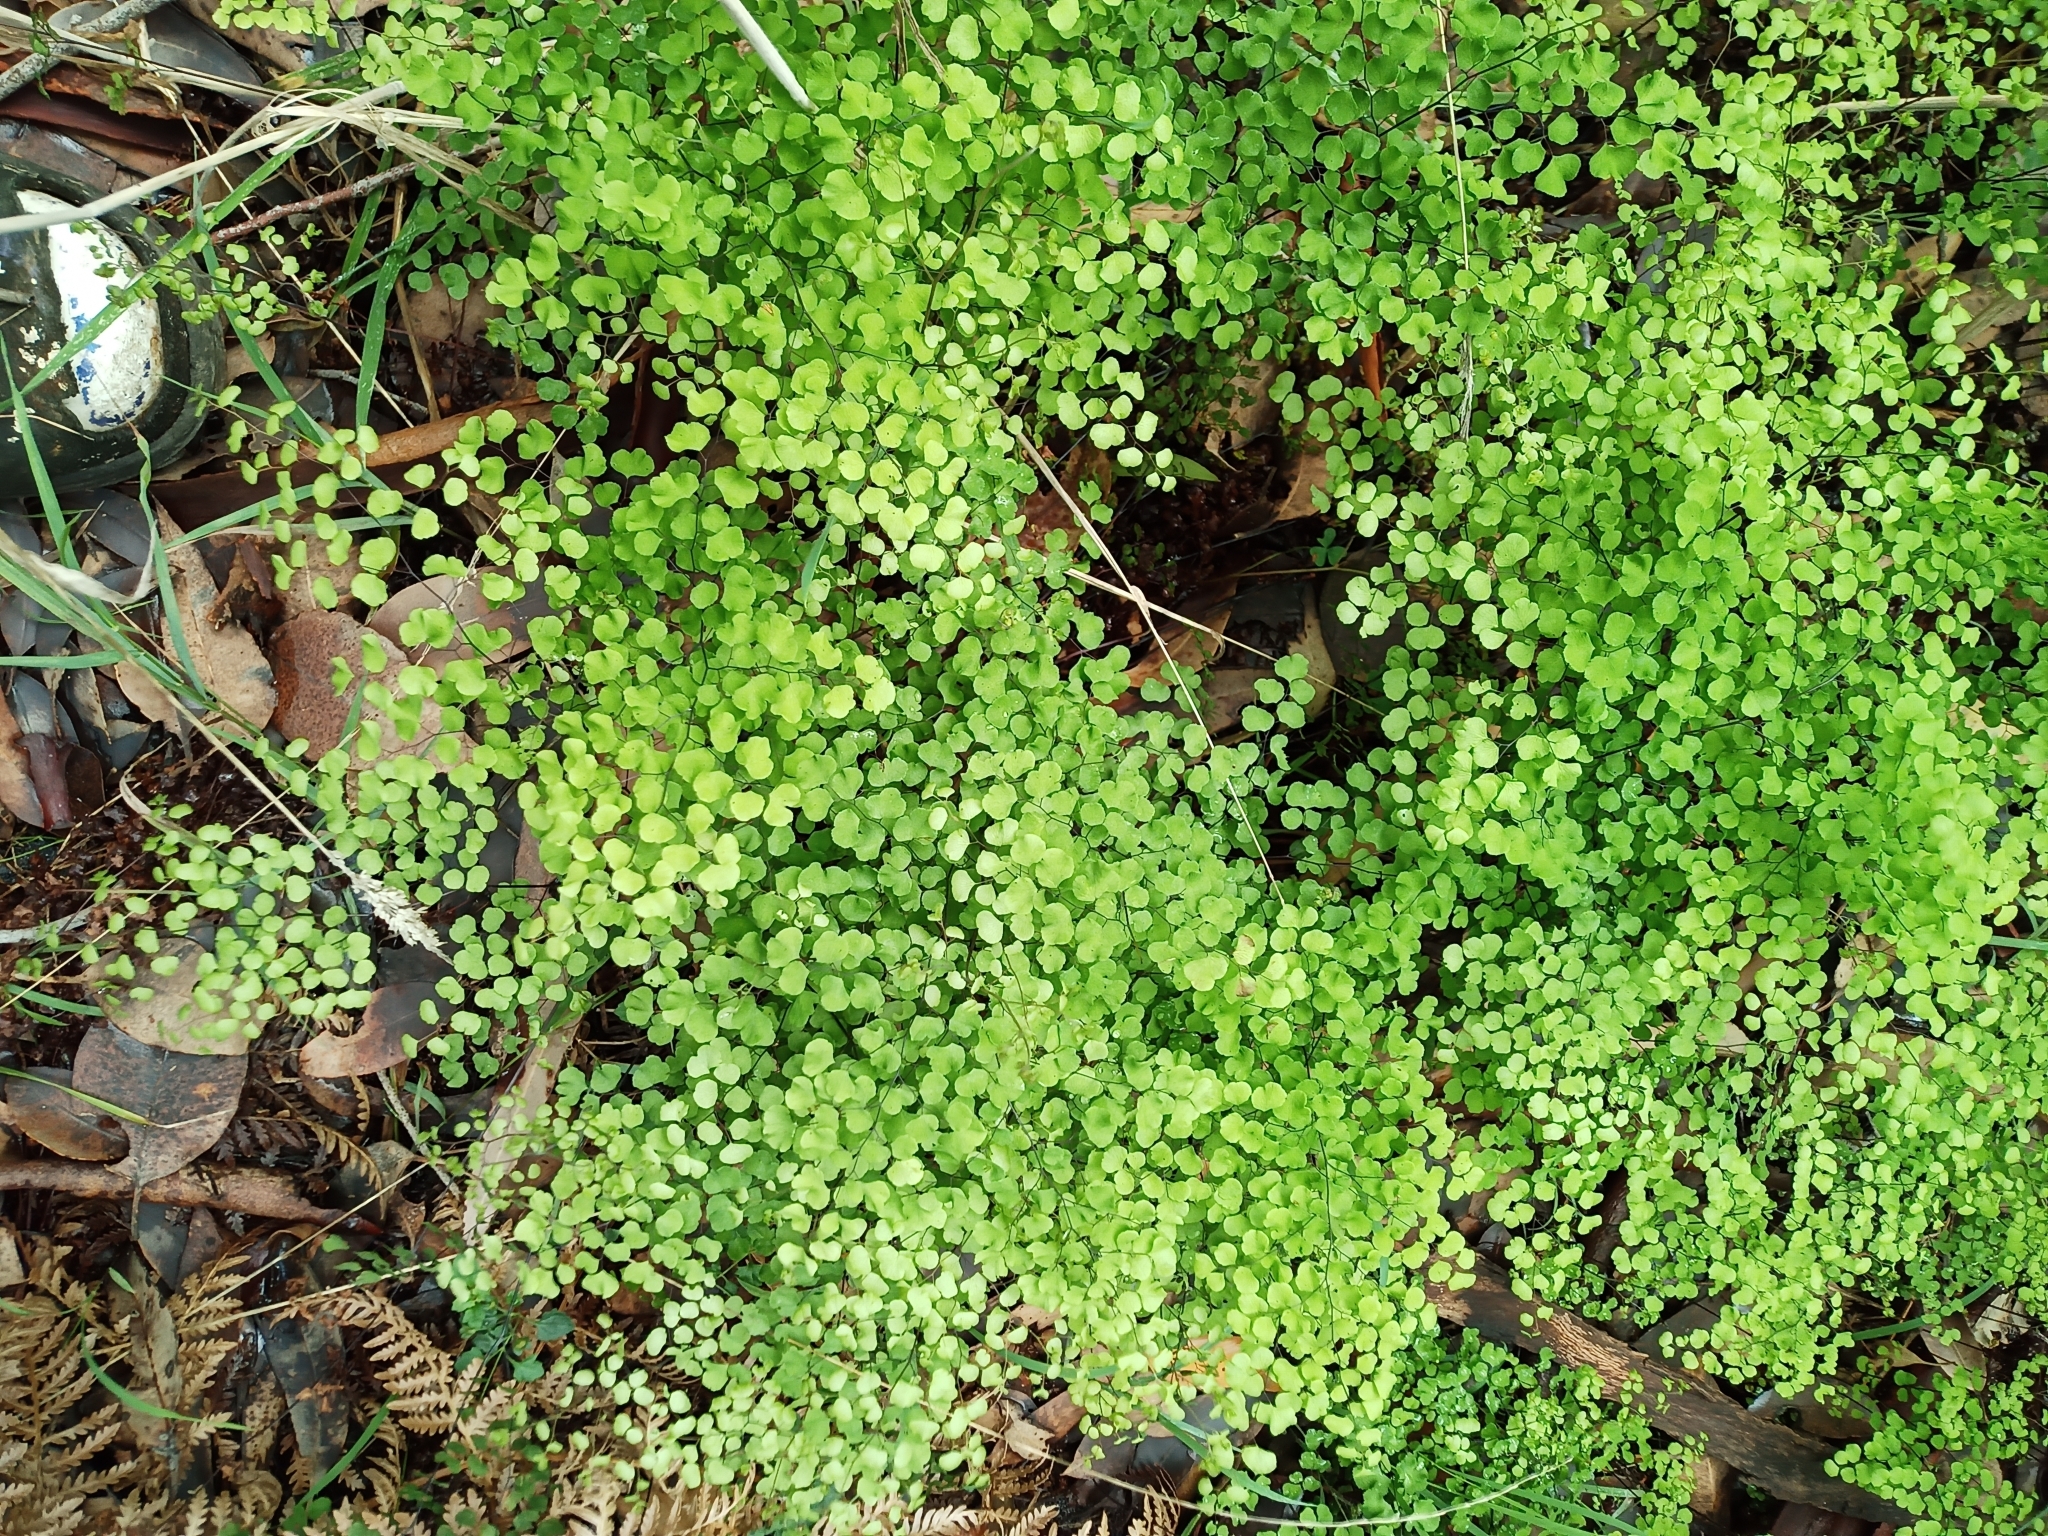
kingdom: Plantae
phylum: Tracheophyta
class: Polypodiopsida
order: Polypodiales
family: Pteridaceae
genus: Adiantum
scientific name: Adiantum aethiopicum
